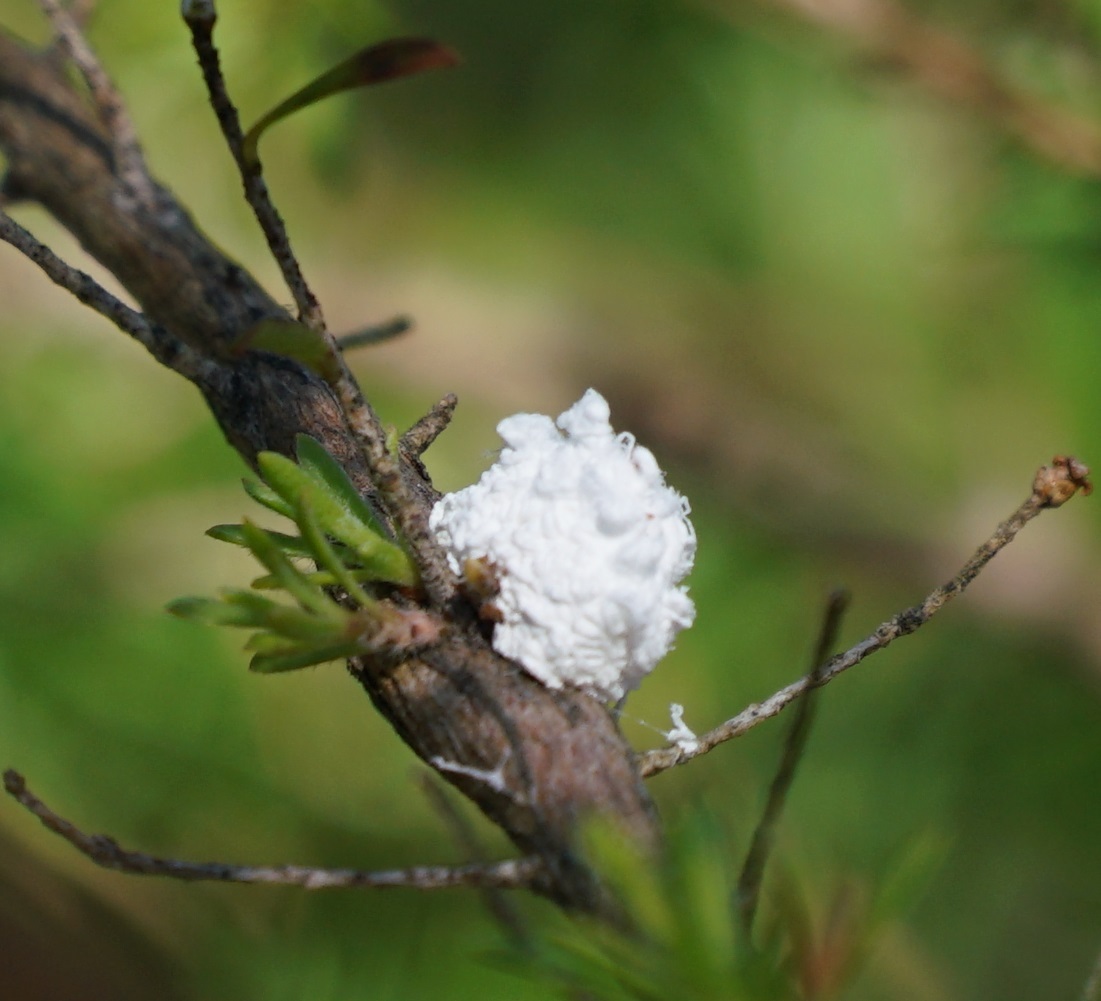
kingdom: Animalia
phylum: Arthropoda
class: Insecta
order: Hemiptera
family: Asterolecaniidae
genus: Callococcus
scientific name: Callococcus
